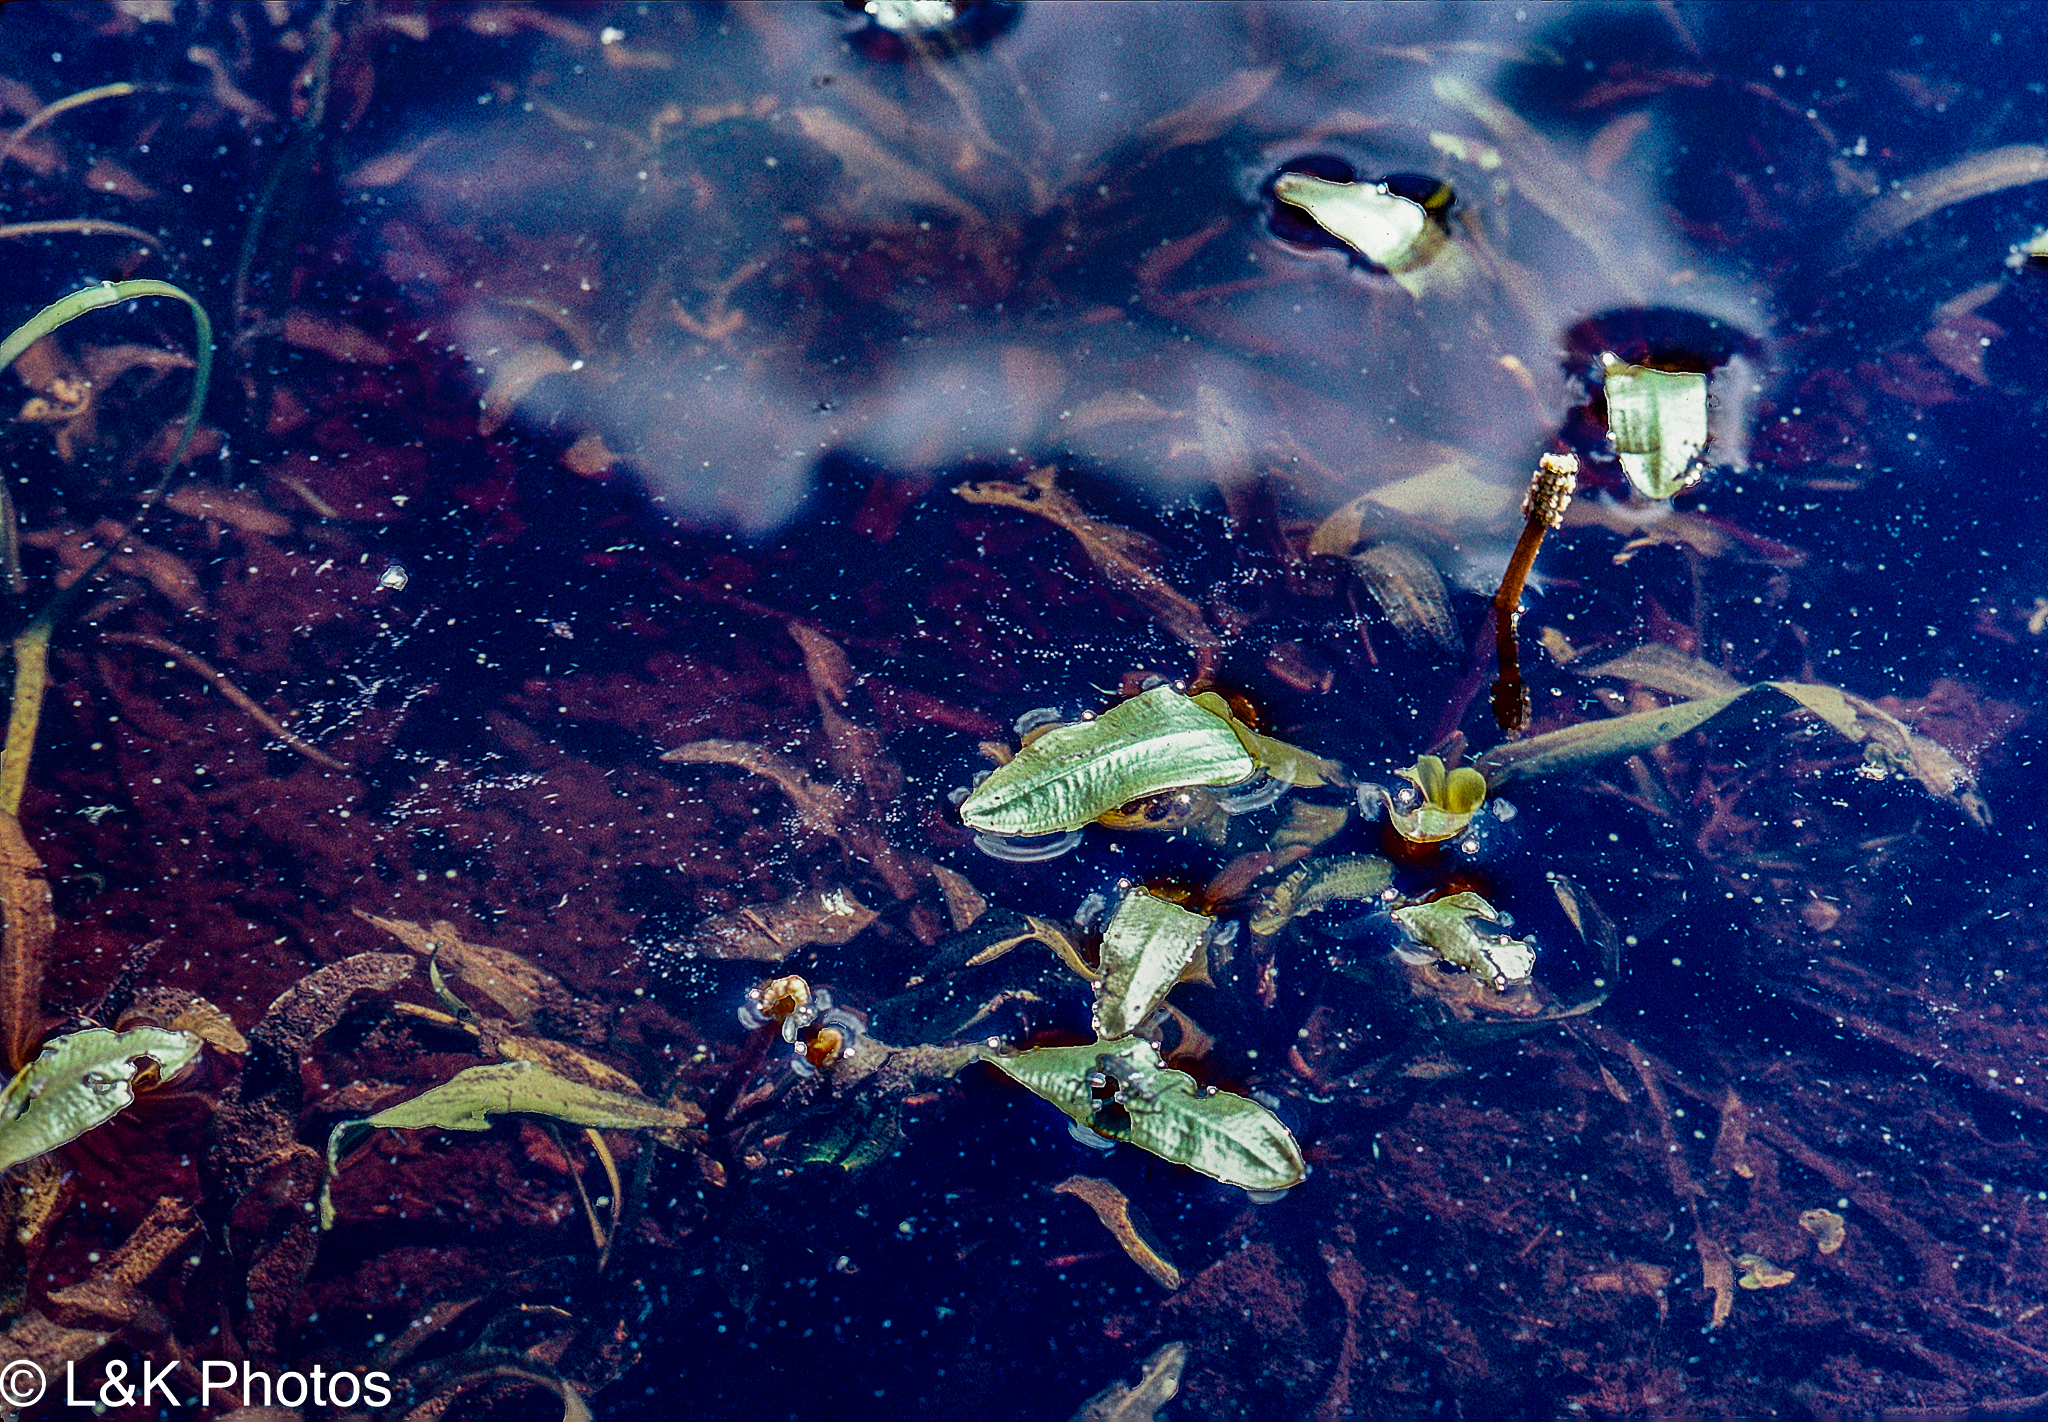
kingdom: Plantae
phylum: Tracheophyta
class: Liliopsida
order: Alismatales
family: Potamogetonaceae
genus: Potamogeton
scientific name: Potamogeton gramineus
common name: Various-leaved pondweed
